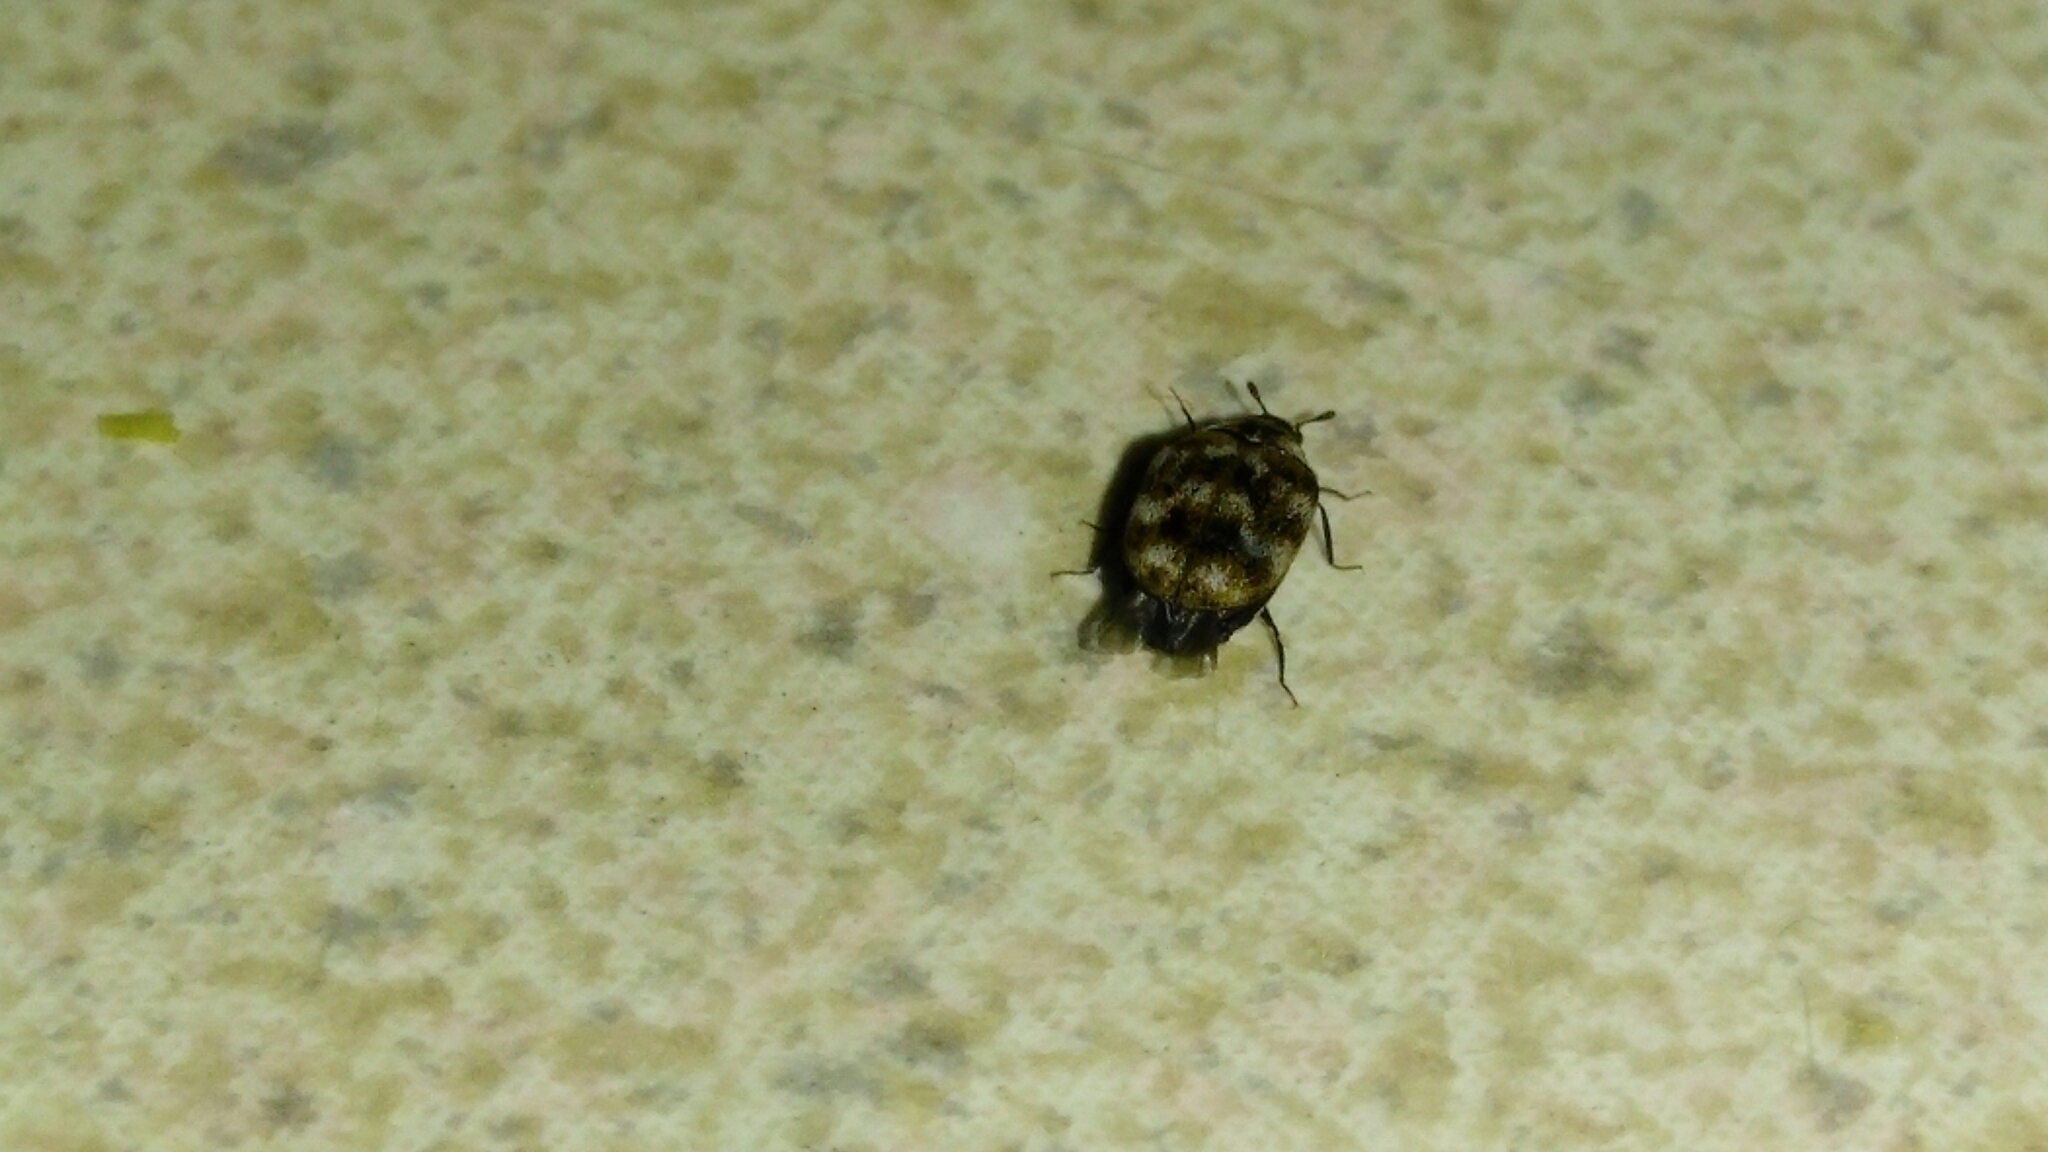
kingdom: Animalia
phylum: Arthropoda
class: Insecta
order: Coleoptera
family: Dermestidae
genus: Anthrenus
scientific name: Anthrenus verbasci
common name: Varied carpet beetle
